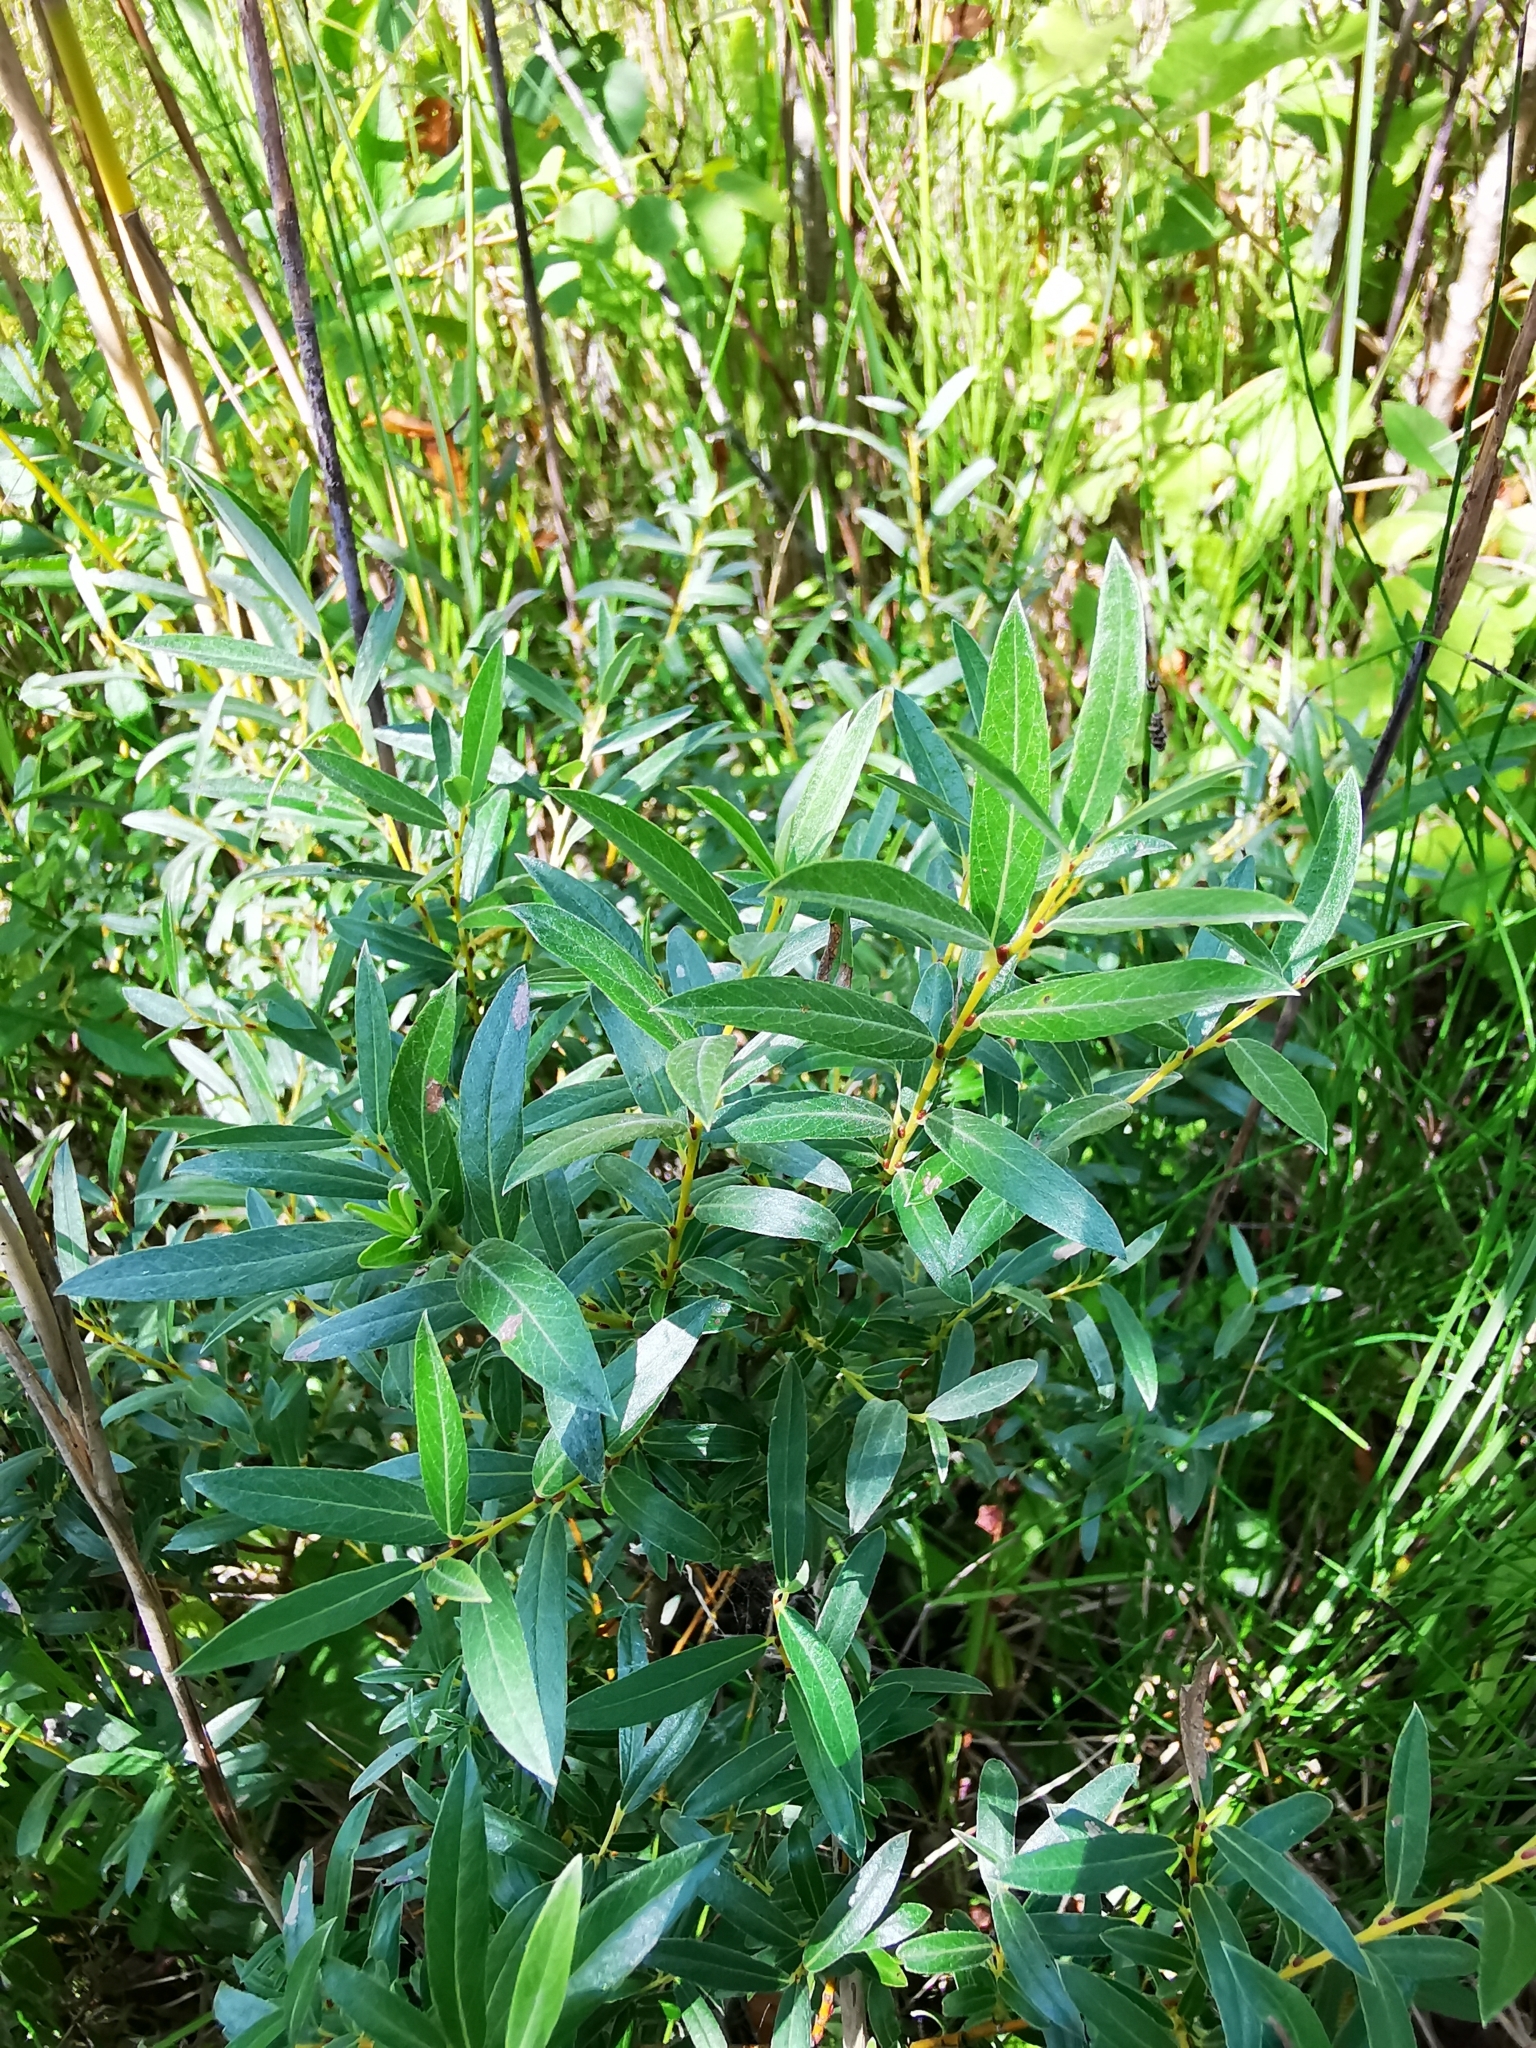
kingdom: Plantae
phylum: Tracheophyta
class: Magnoliopsida
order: Malpighiales
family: Salicaceae
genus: Salix
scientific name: Salix rosmarinifolia
